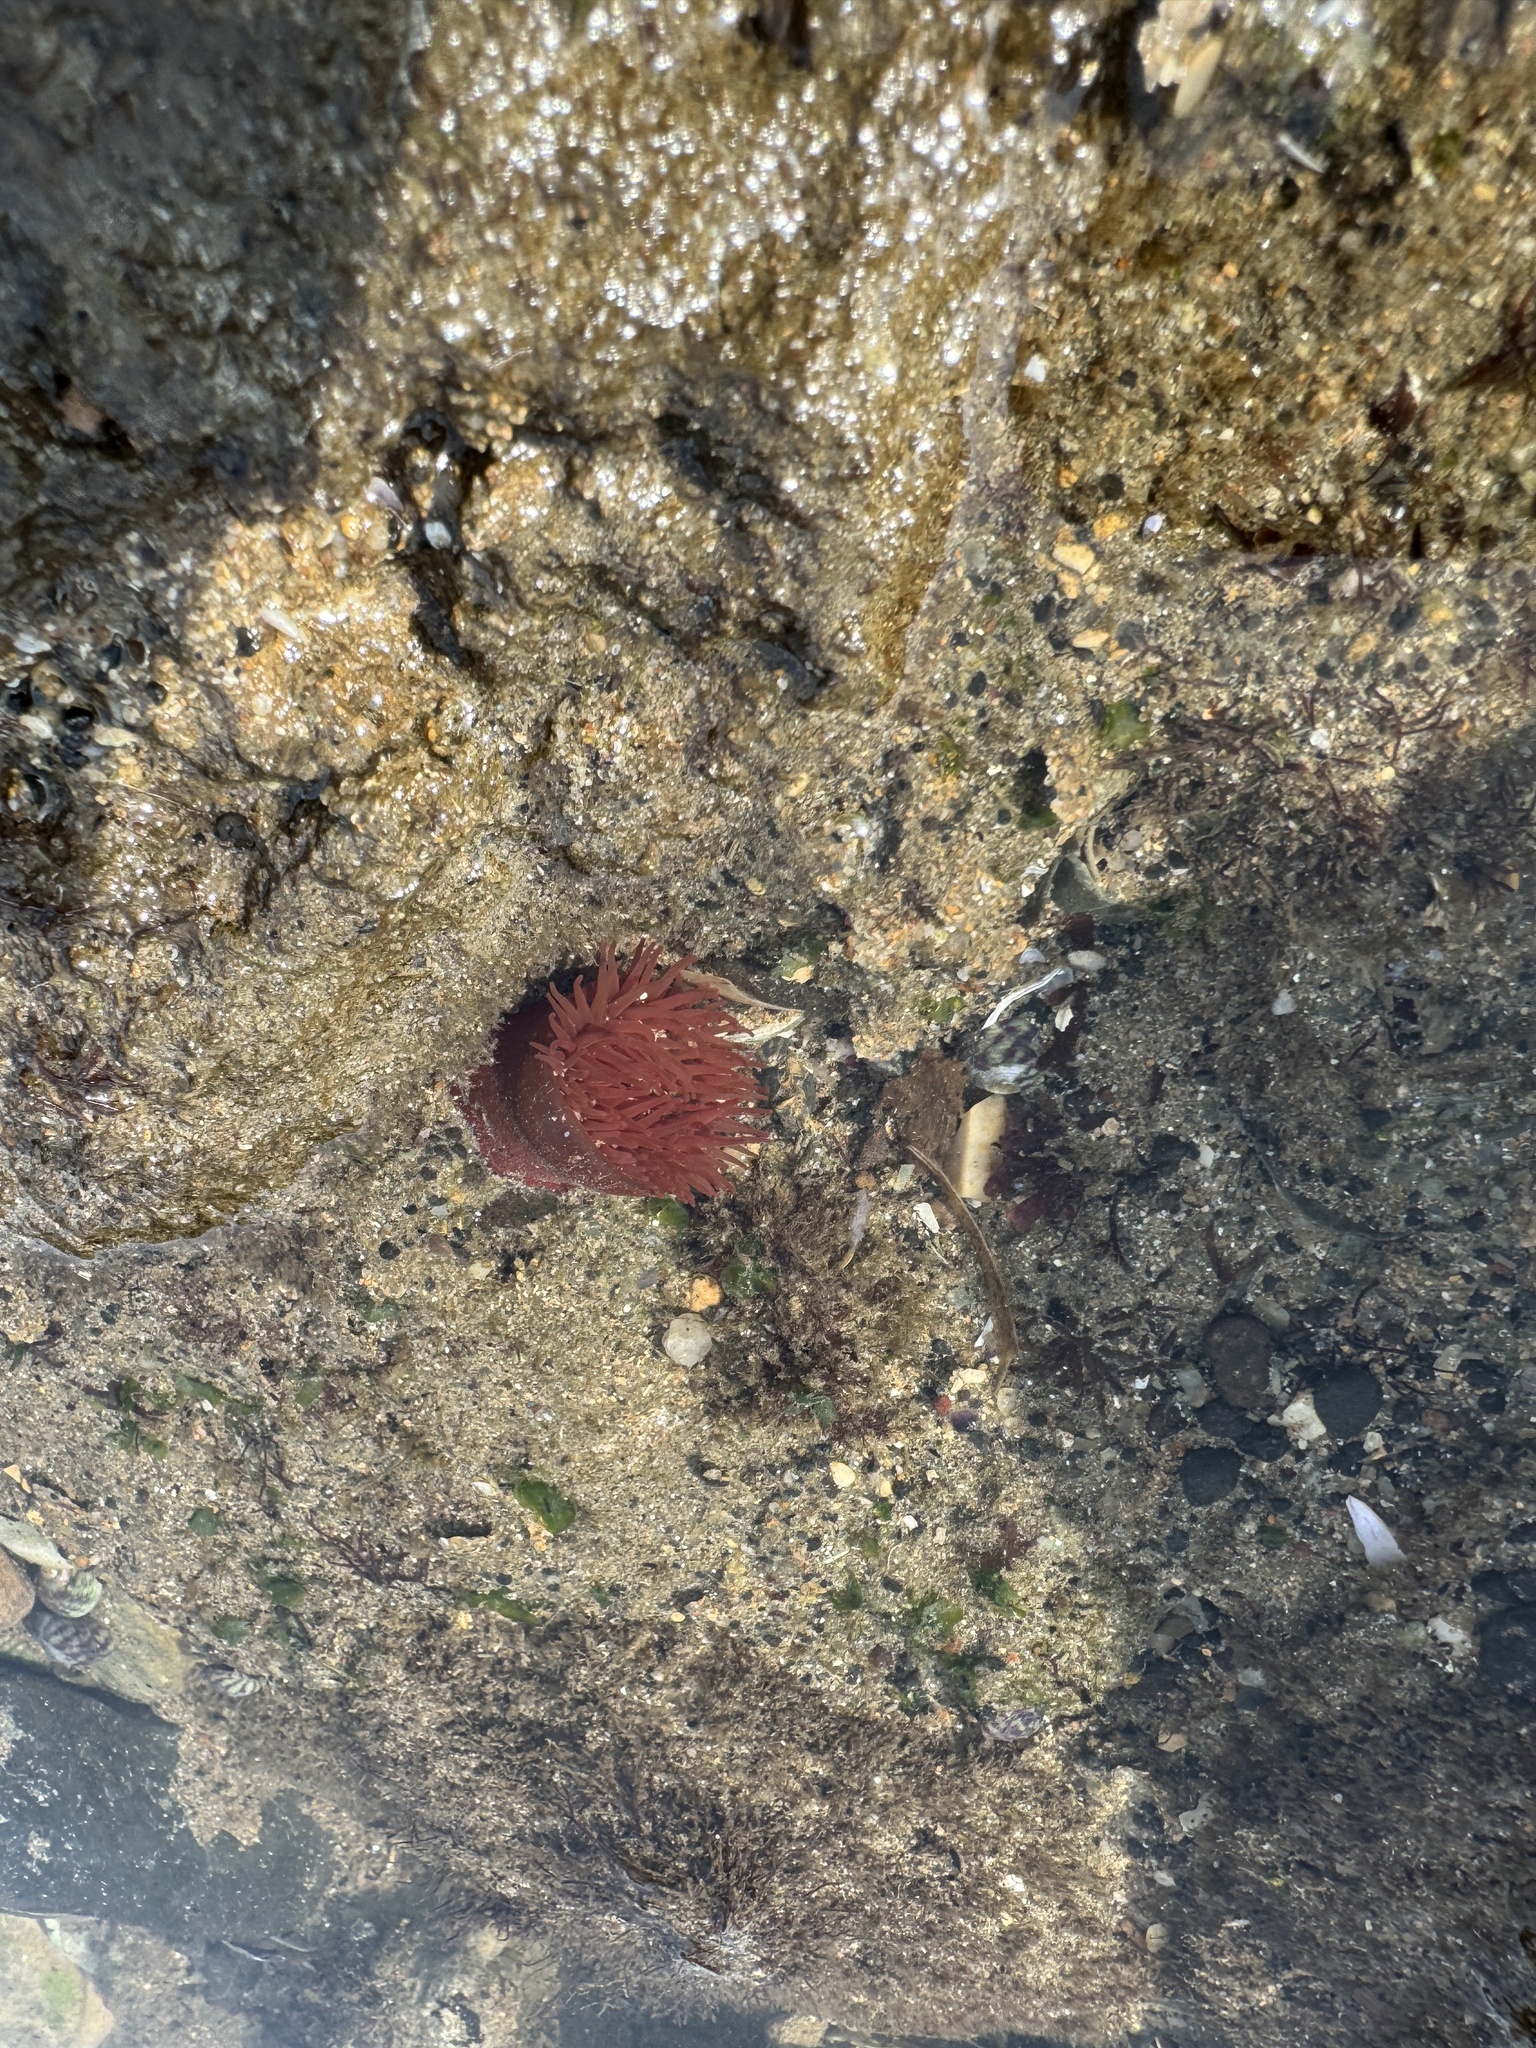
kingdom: Animalia
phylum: Cnidaria
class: Anthozoa
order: Actiniaria
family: Actiniidae
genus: Actinia
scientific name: Actinia equina
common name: Beadlet anemone
